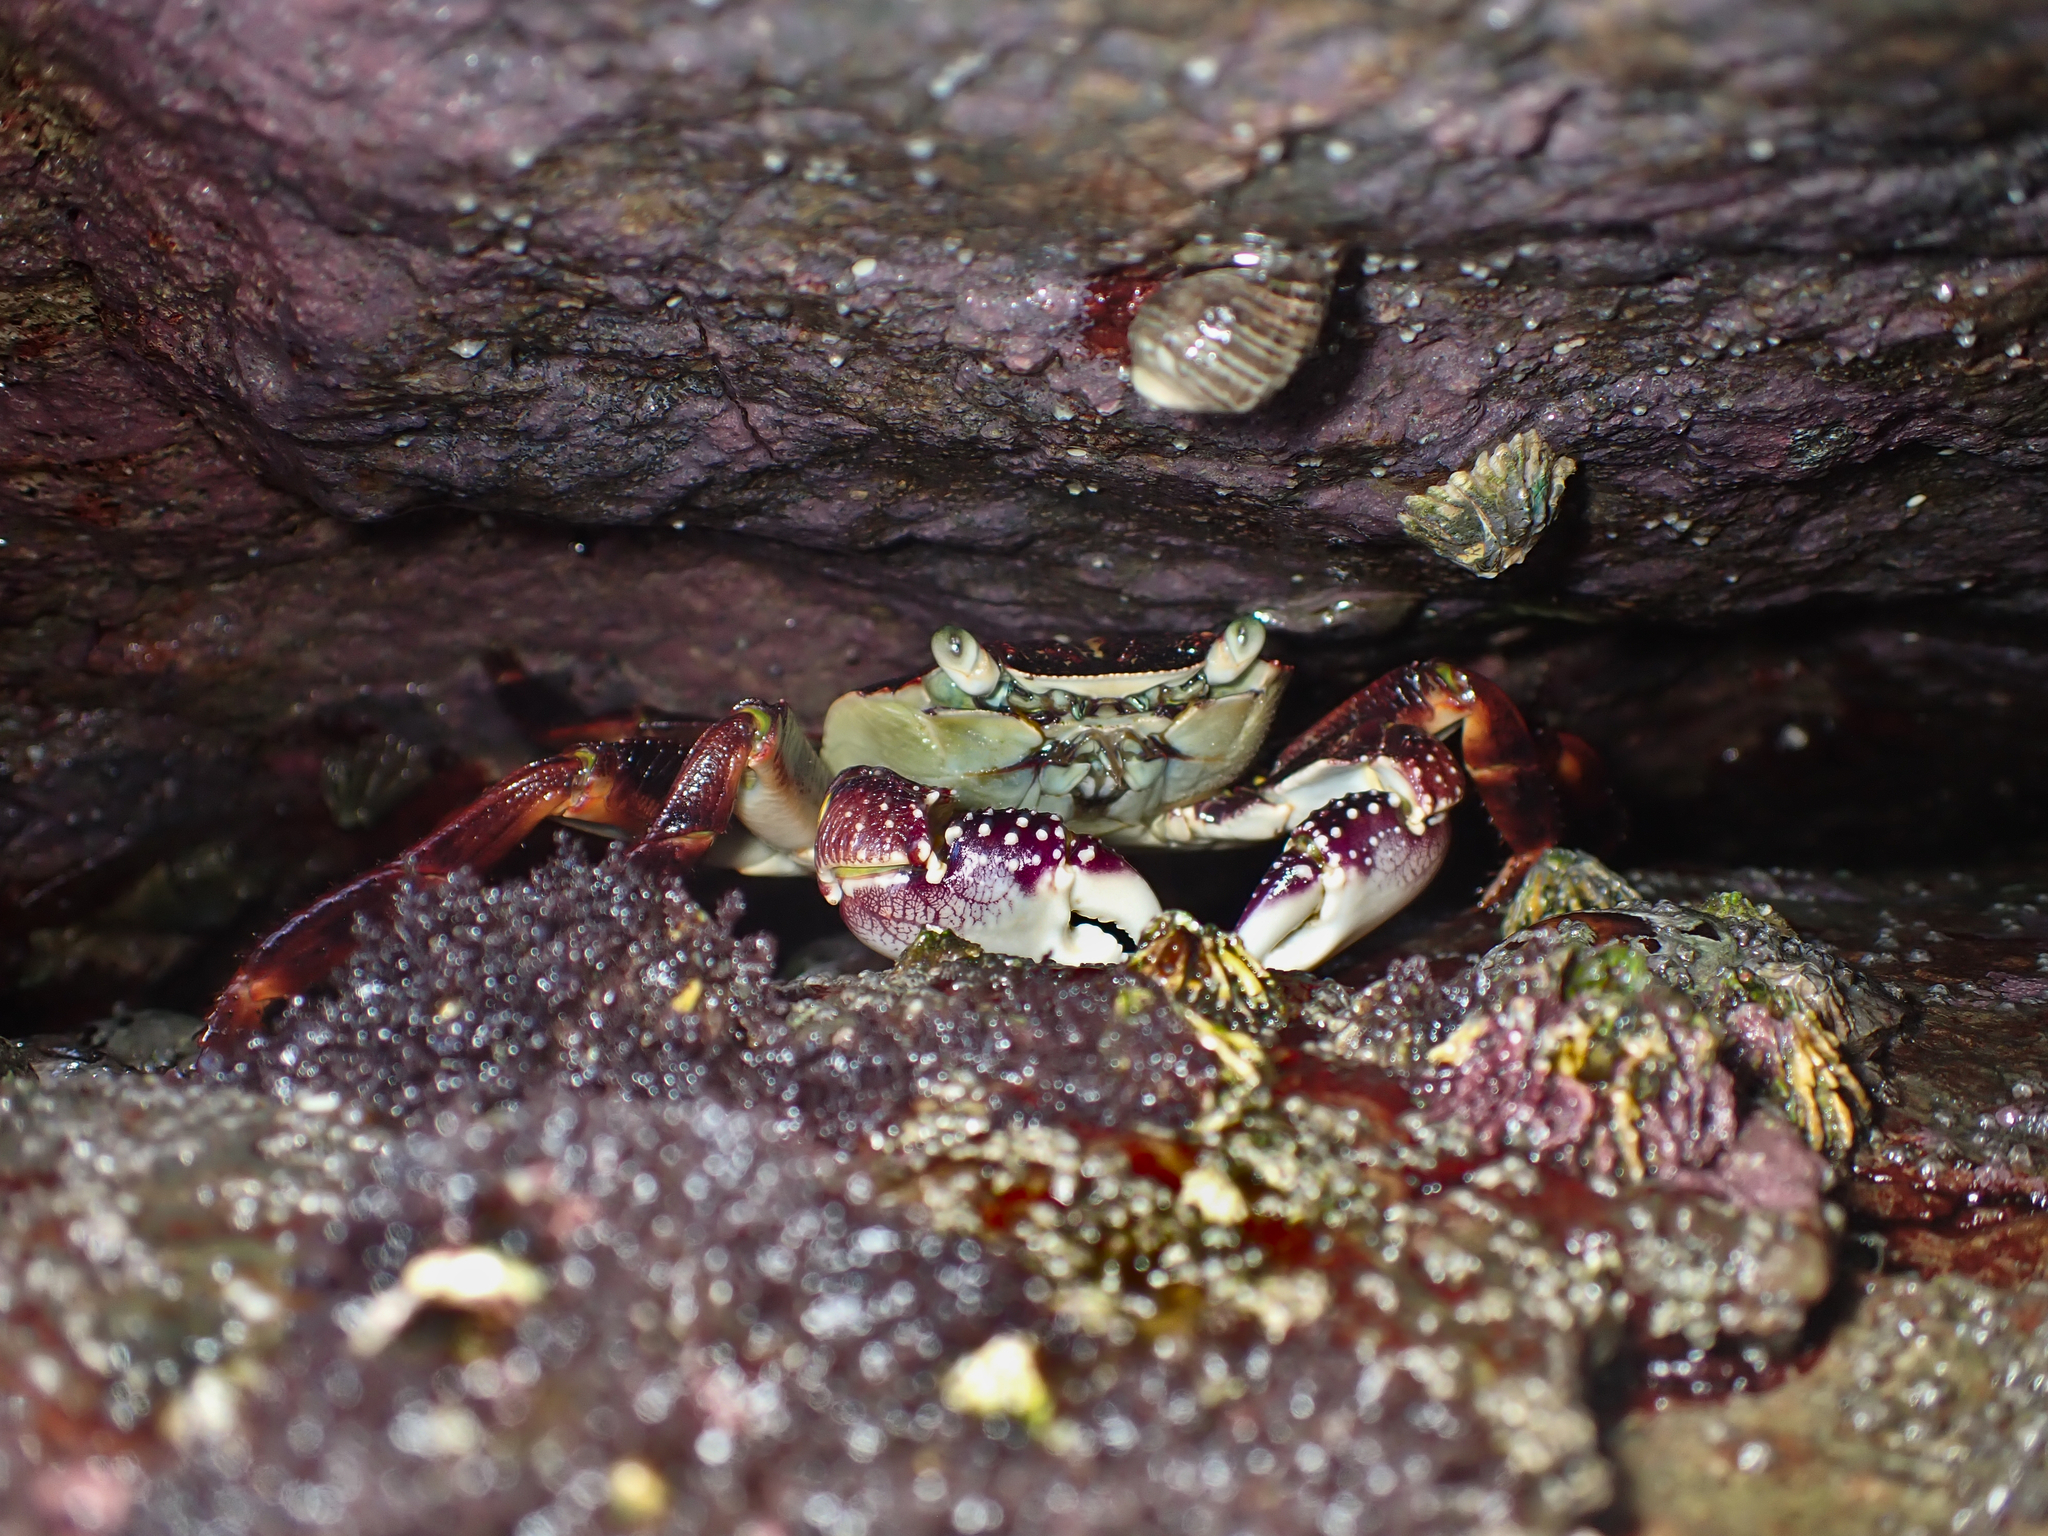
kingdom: Animalia
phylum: Arthropoda
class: Malacostraca
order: Decapoda
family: Grapsidae
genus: Leptograpsus
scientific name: Leptograpsus variegatus
